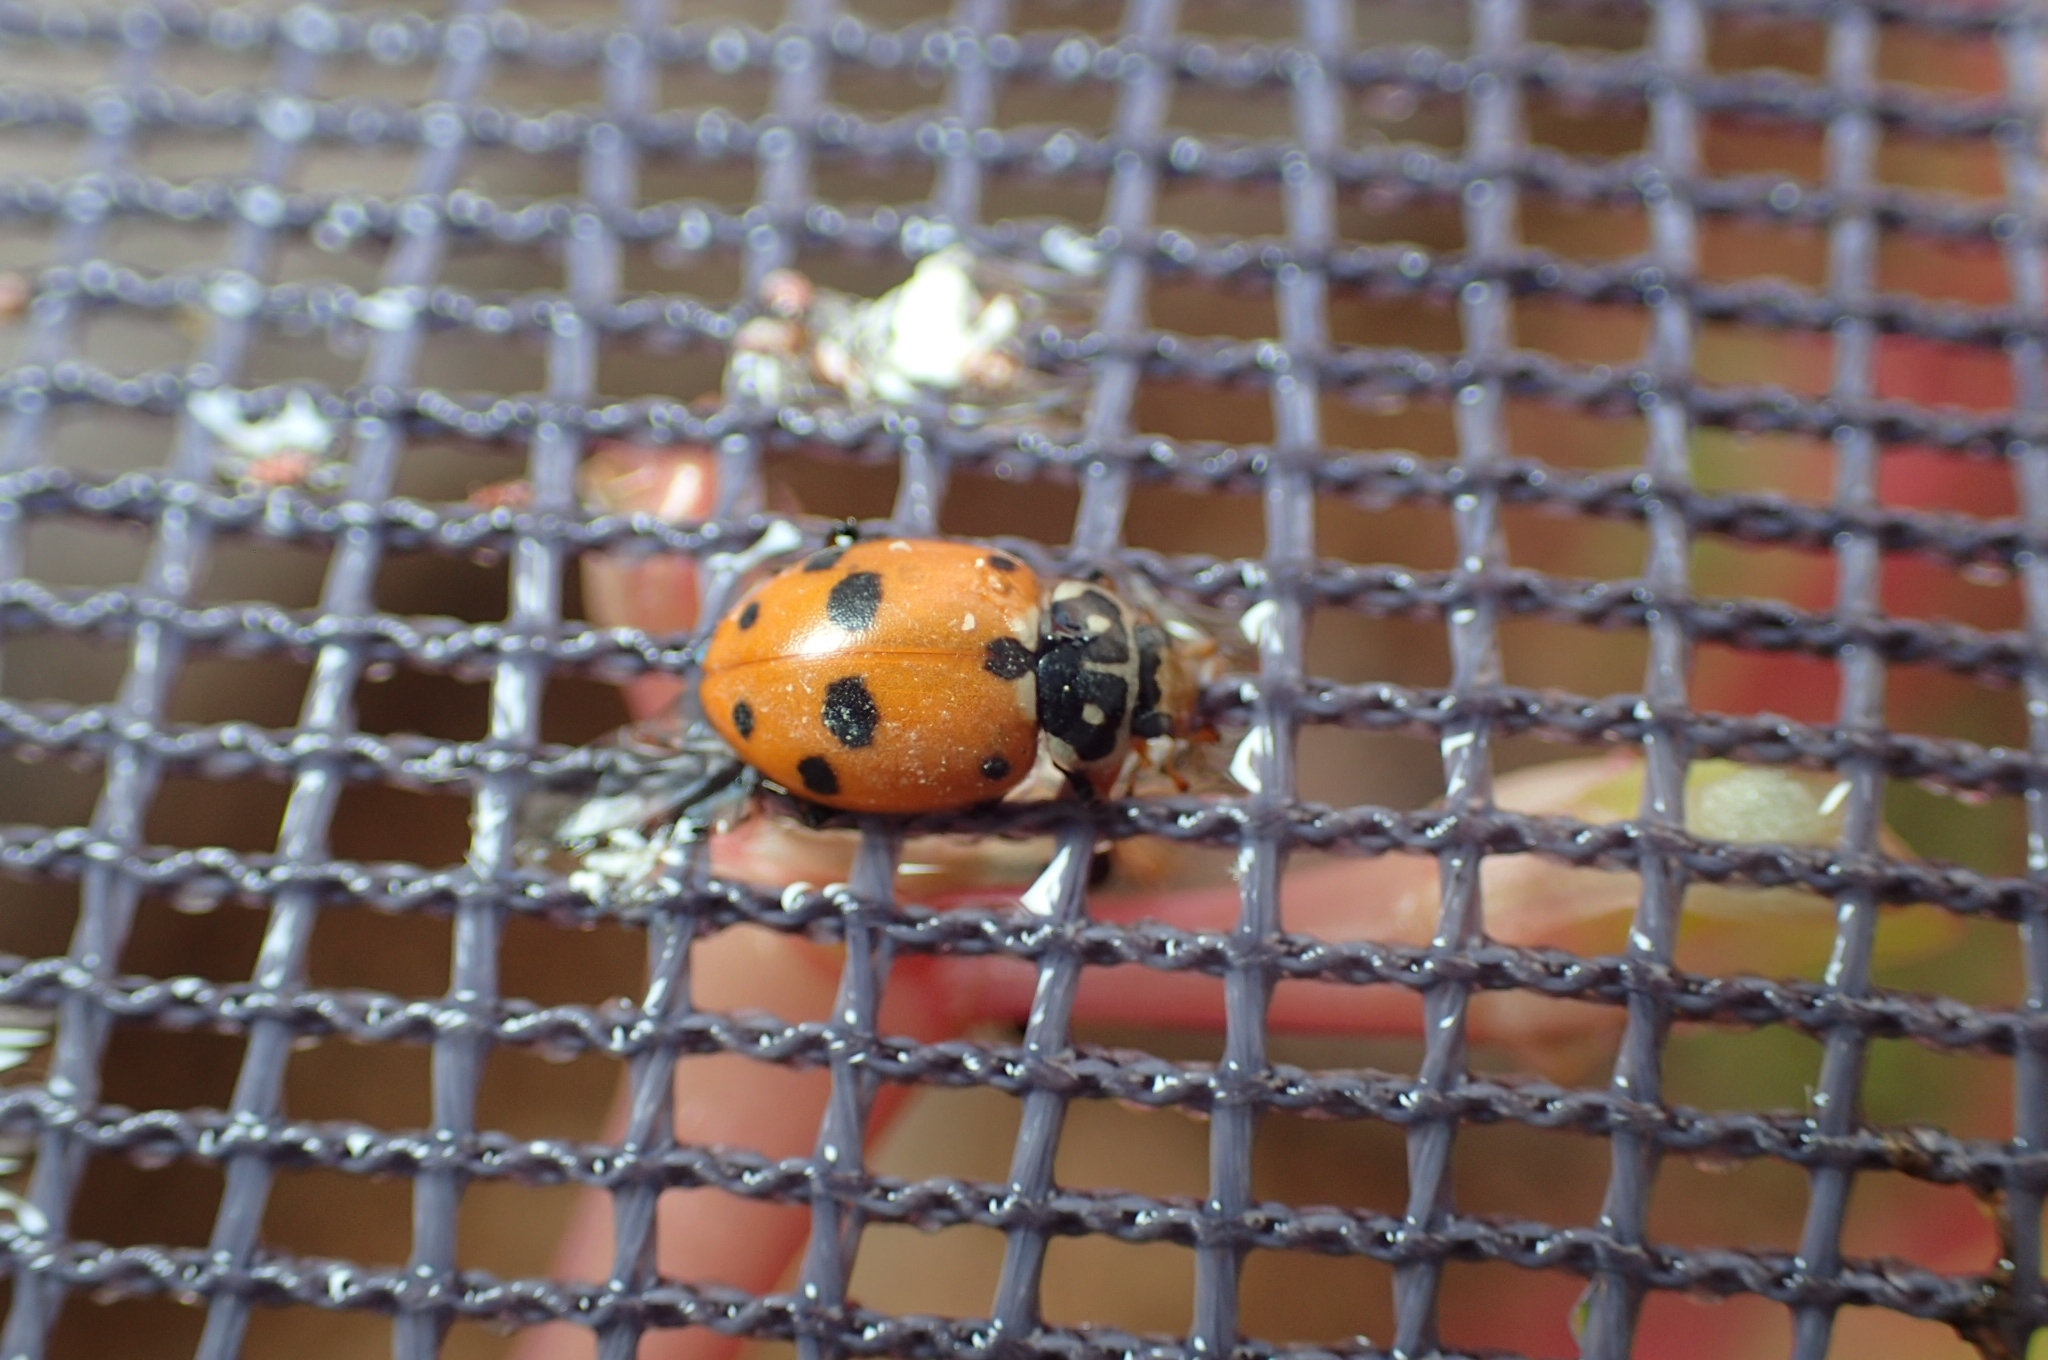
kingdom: Animalia
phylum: Arthropoda
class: Insecta
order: Coleoptera
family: Coccinellidae
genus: Hippodamia
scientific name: Hippodamia variegata
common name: Ladybird beetle
